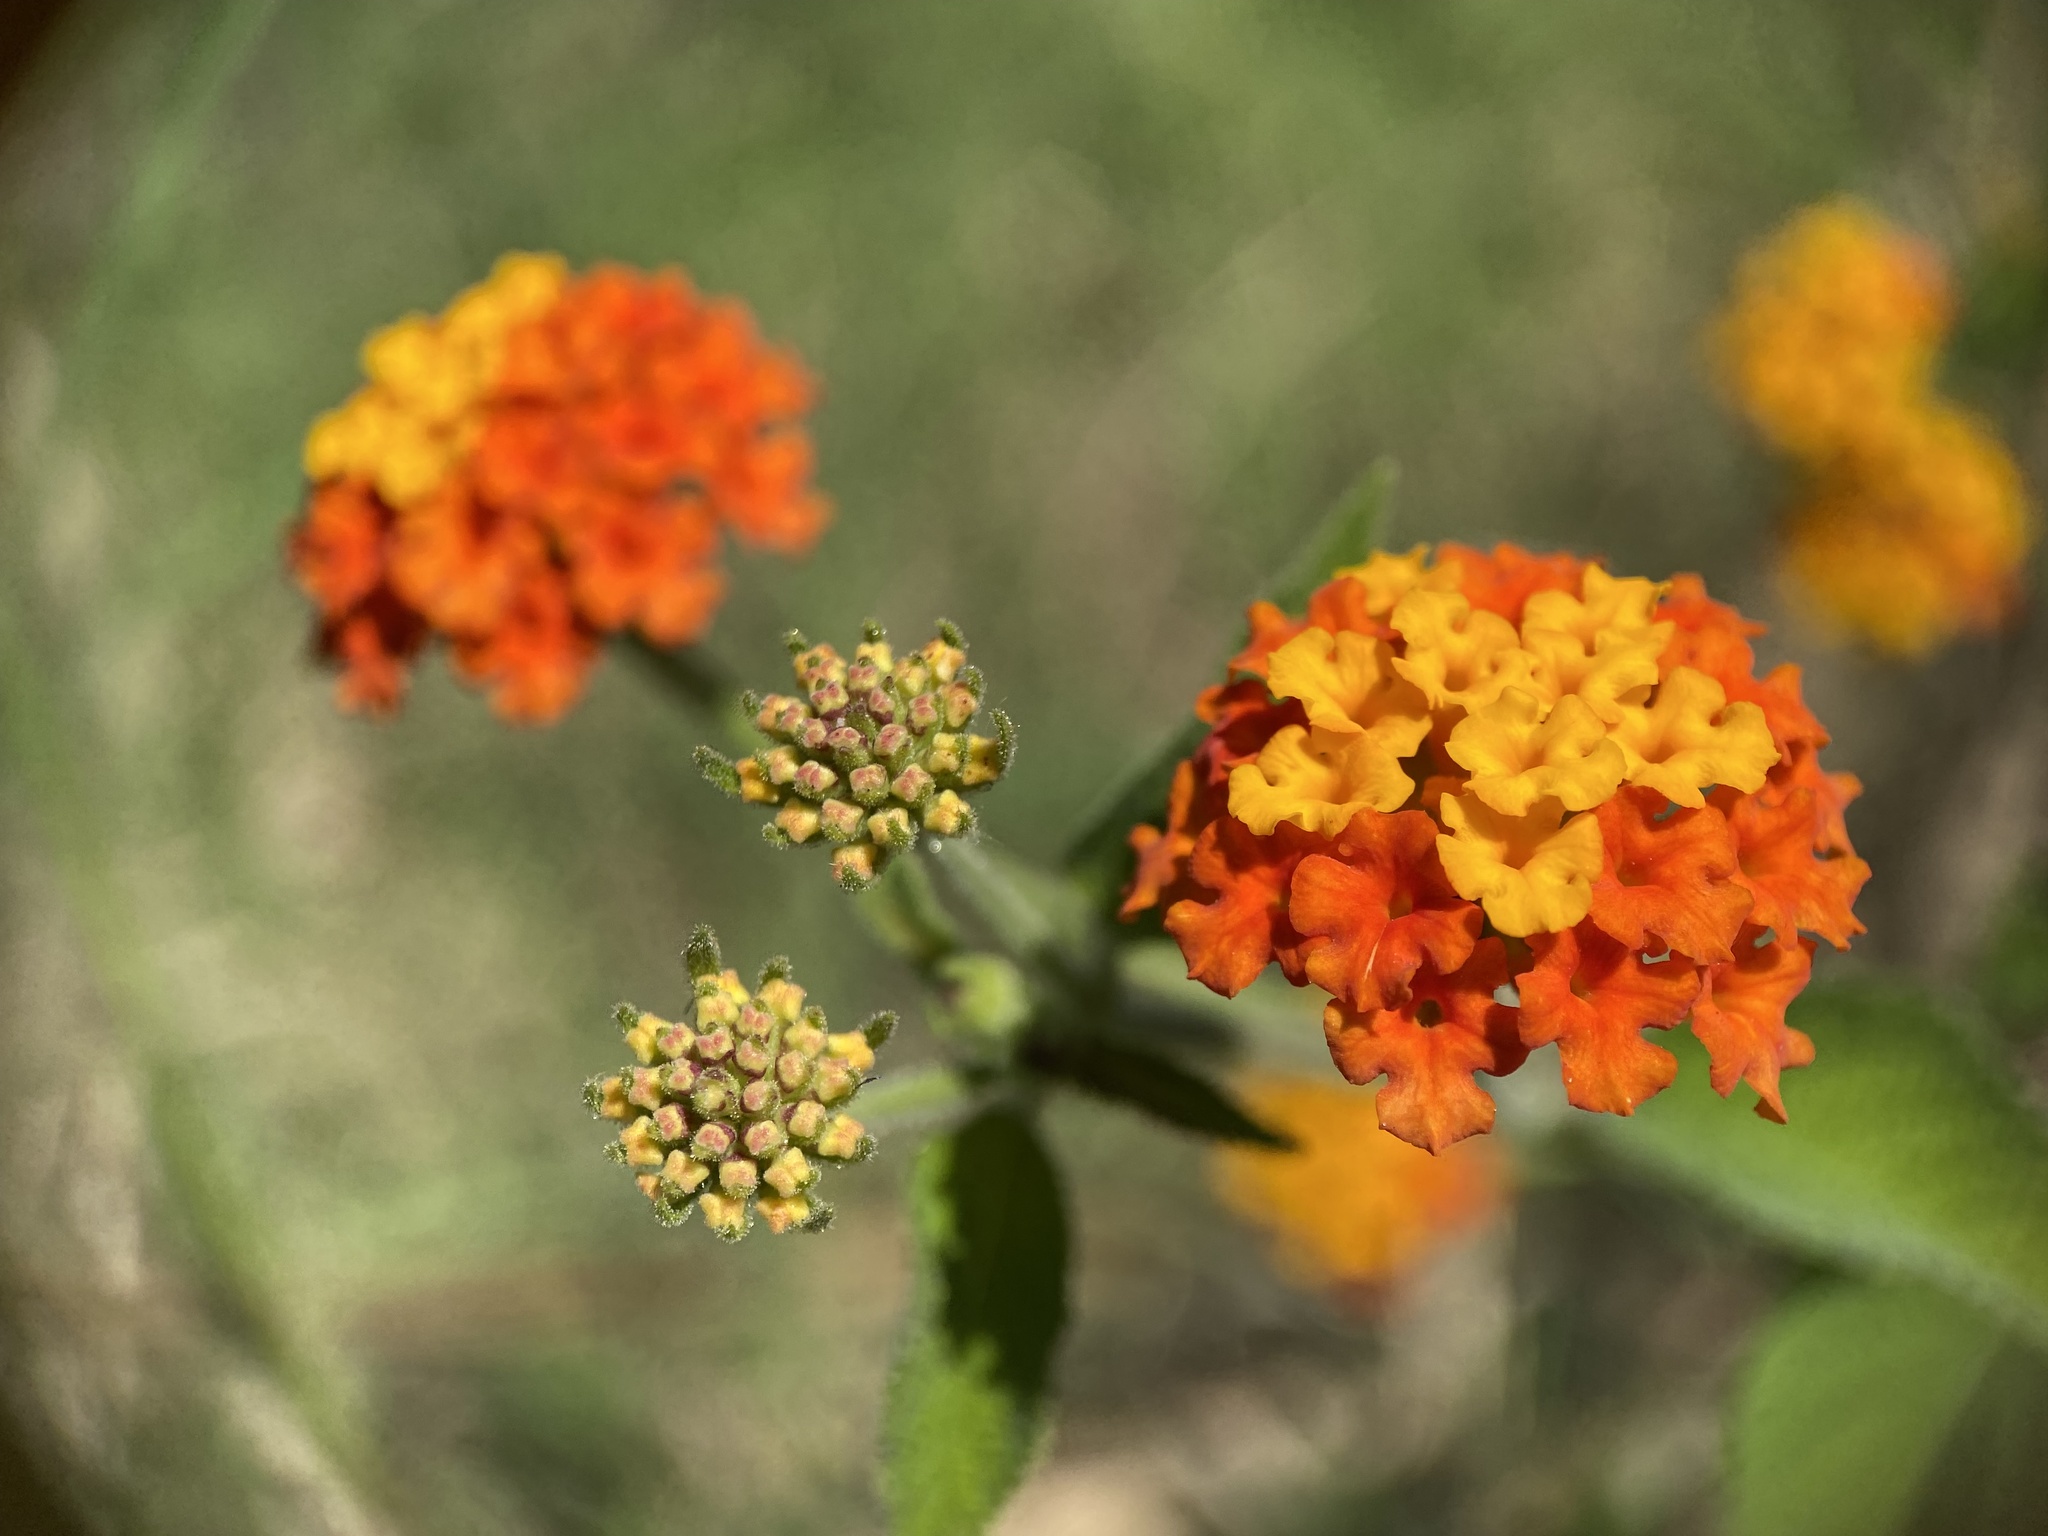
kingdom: Plantae
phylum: Tracheophyta
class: Magnoliopsida
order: Lamiales
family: Verbenaceae
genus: Lantana
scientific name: Lantana camara
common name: Lantana
